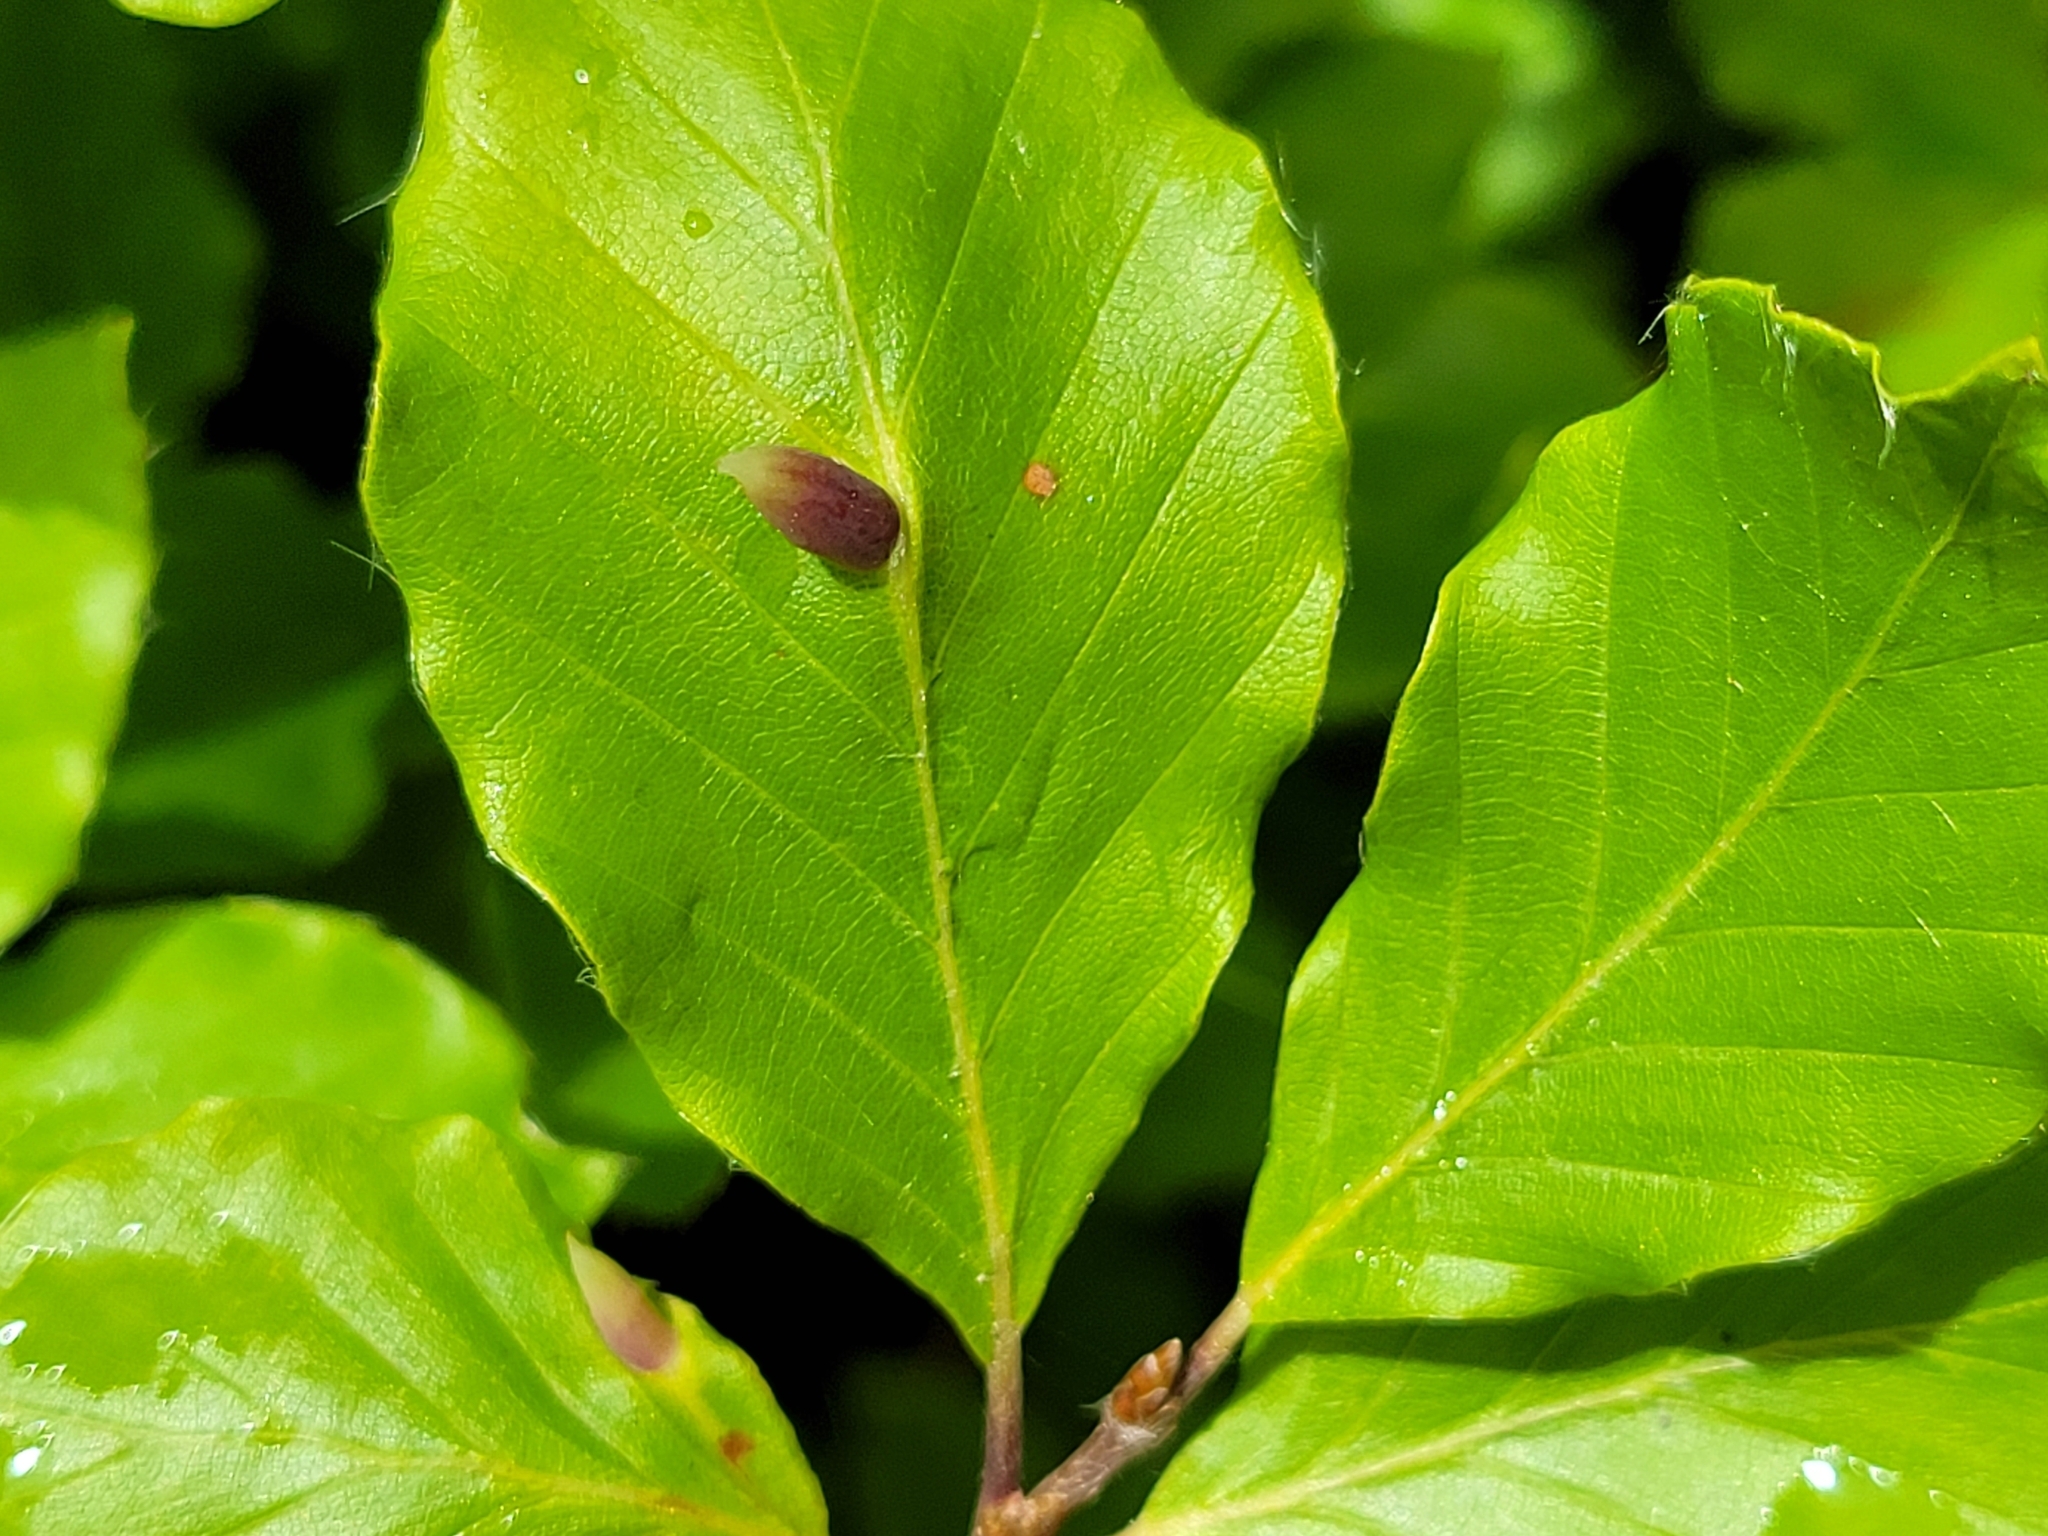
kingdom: Animalia
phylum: Arthropoda
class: Insecta
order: Diptera
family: Cecidomyiidae
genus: Mikiola
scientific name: Mikiola fagi
